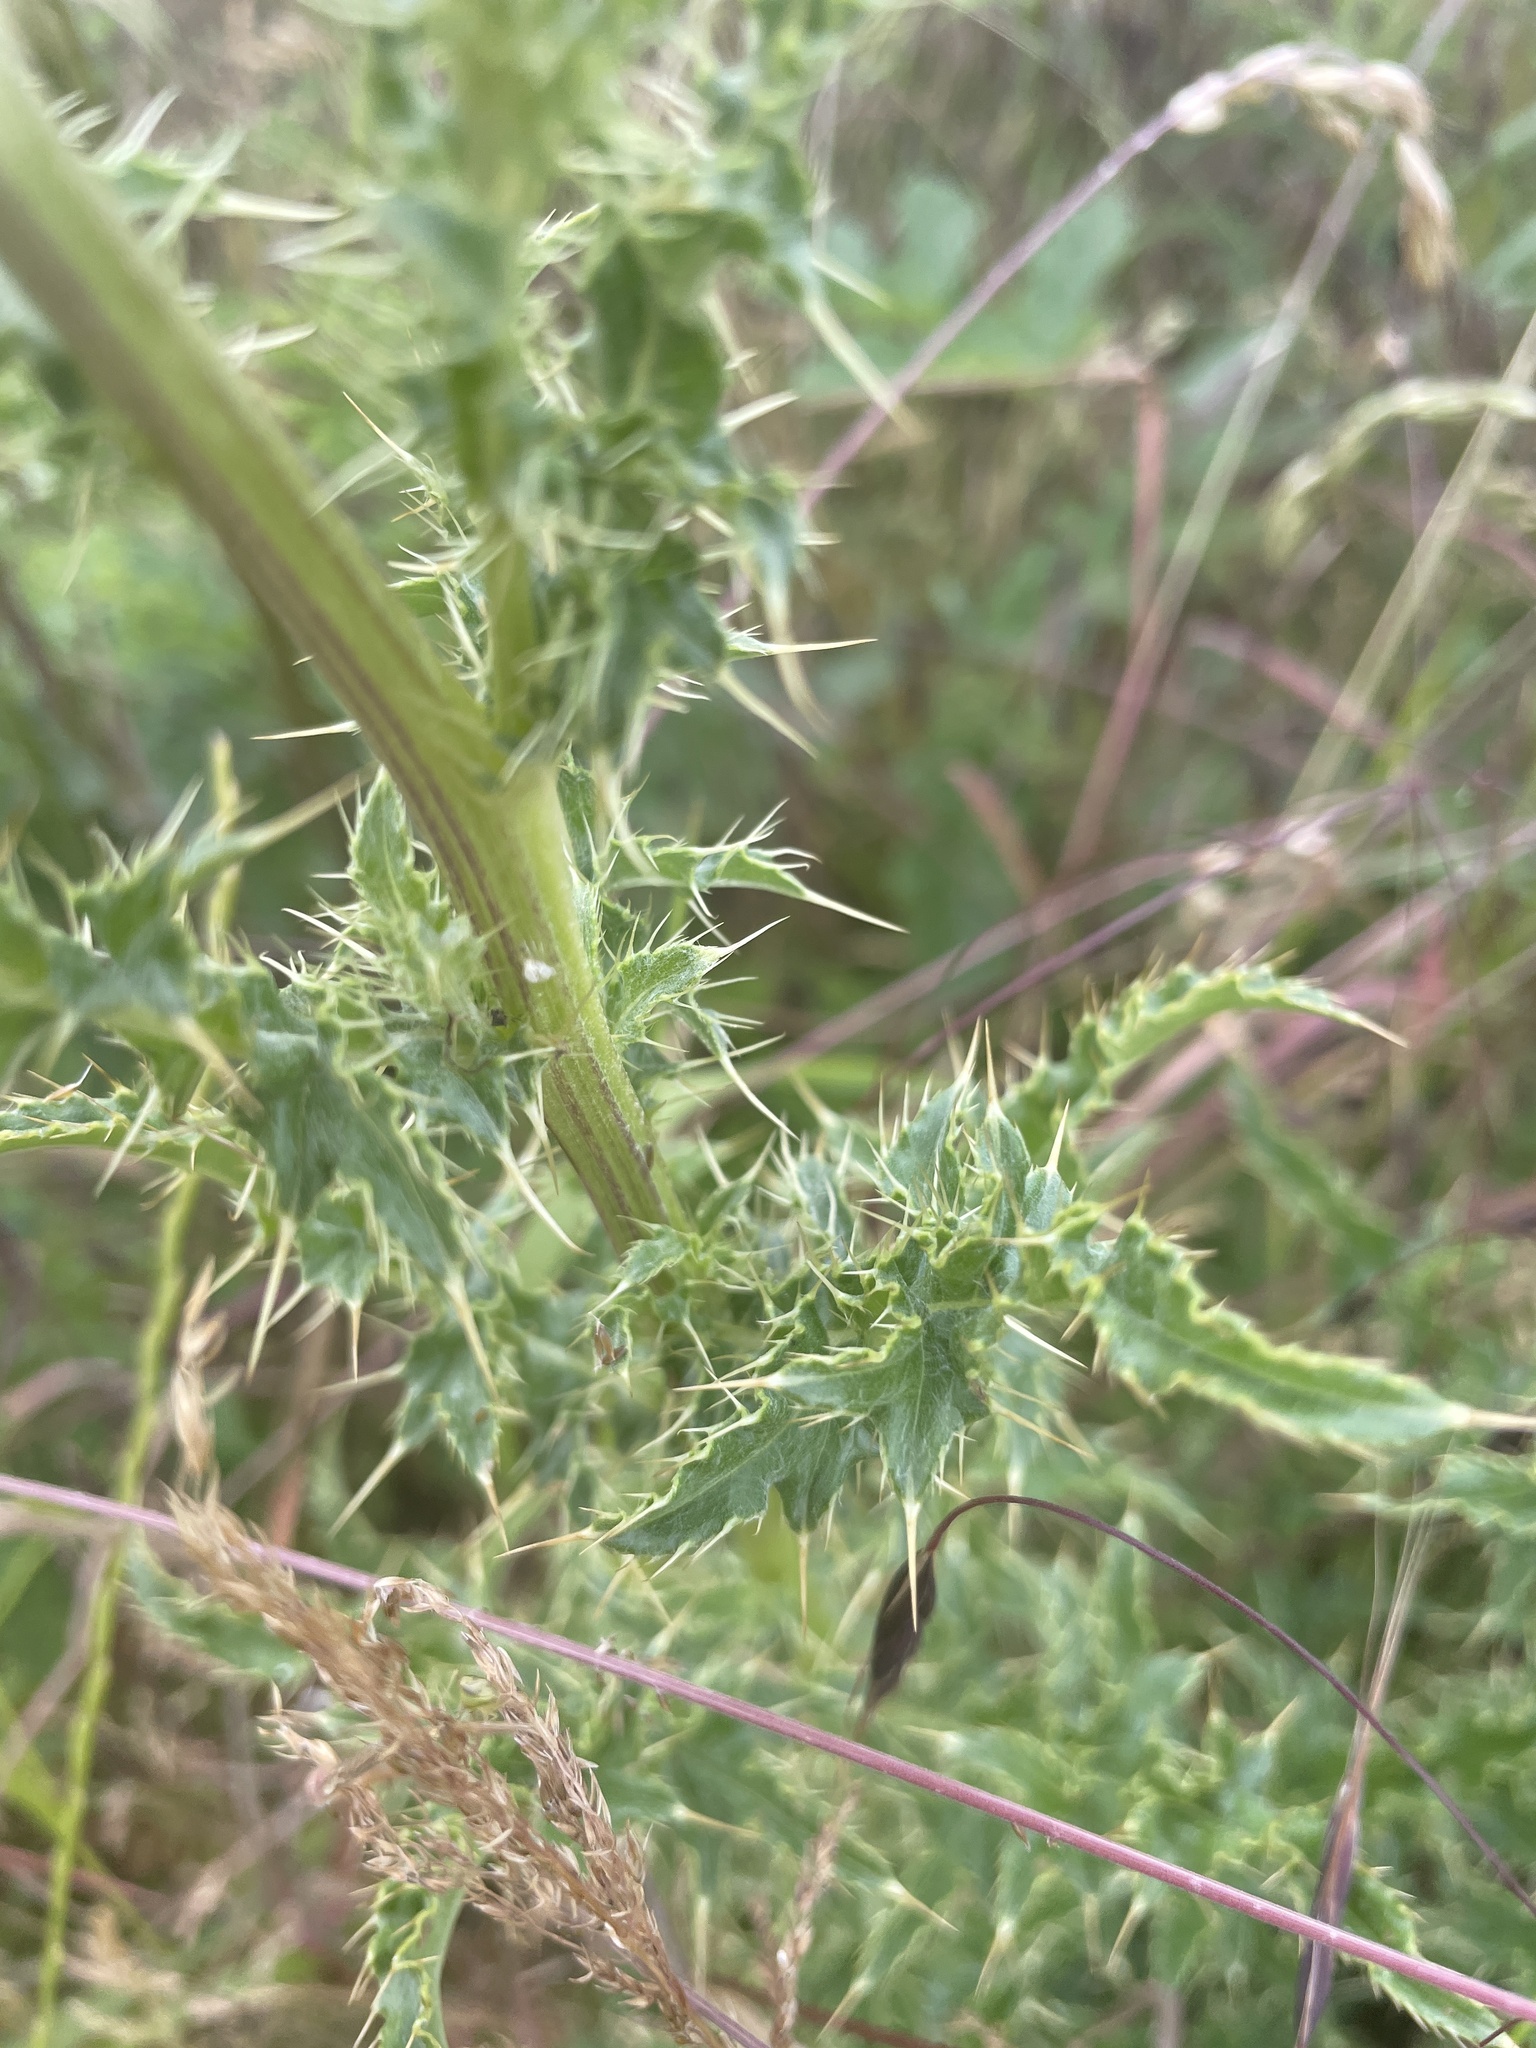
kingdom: Plantae
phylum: Tracheophyta
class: Magnoliopsida
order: Asterales
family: Asteraceae
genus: Cirsium
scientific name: Cirsium arvense
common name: Creeping thistle
